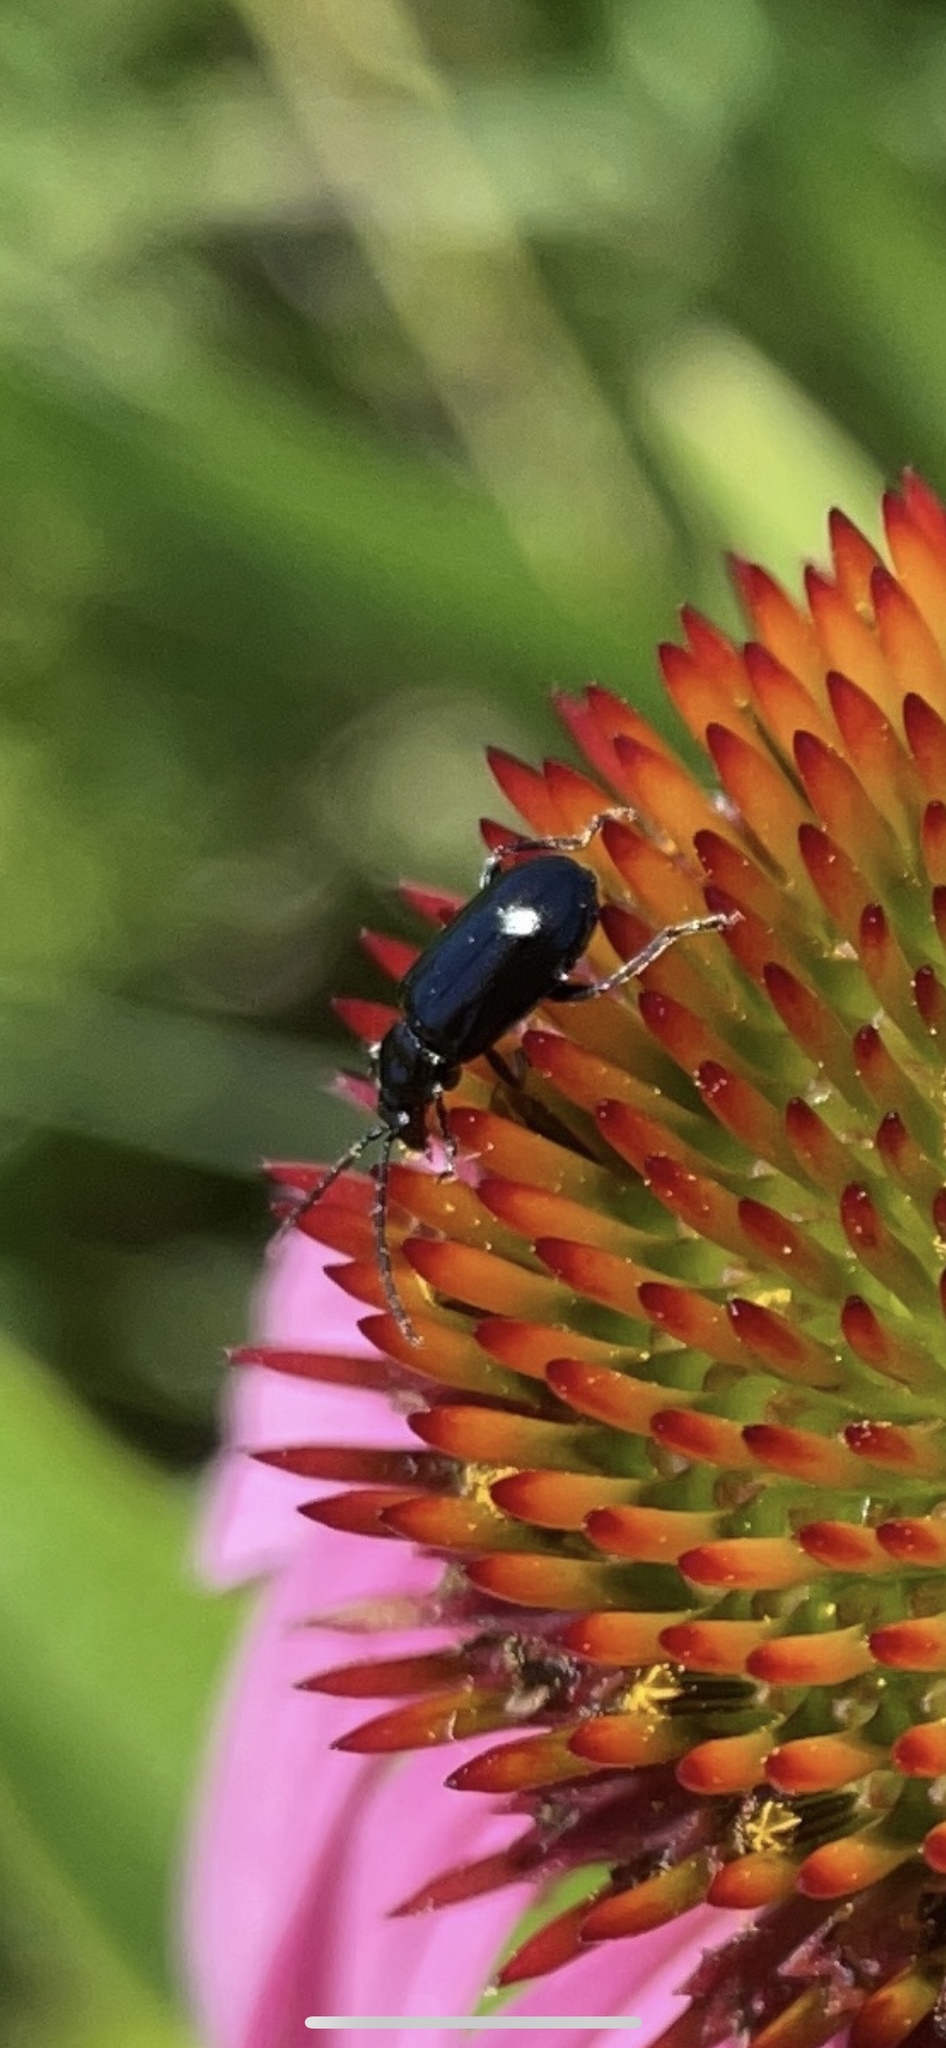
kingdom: Animalia
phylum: Arthropoda
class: Insecta
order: Coleoptera
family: Chrysomelidae
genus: Diabrotica
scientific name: Diabrotica cristata
